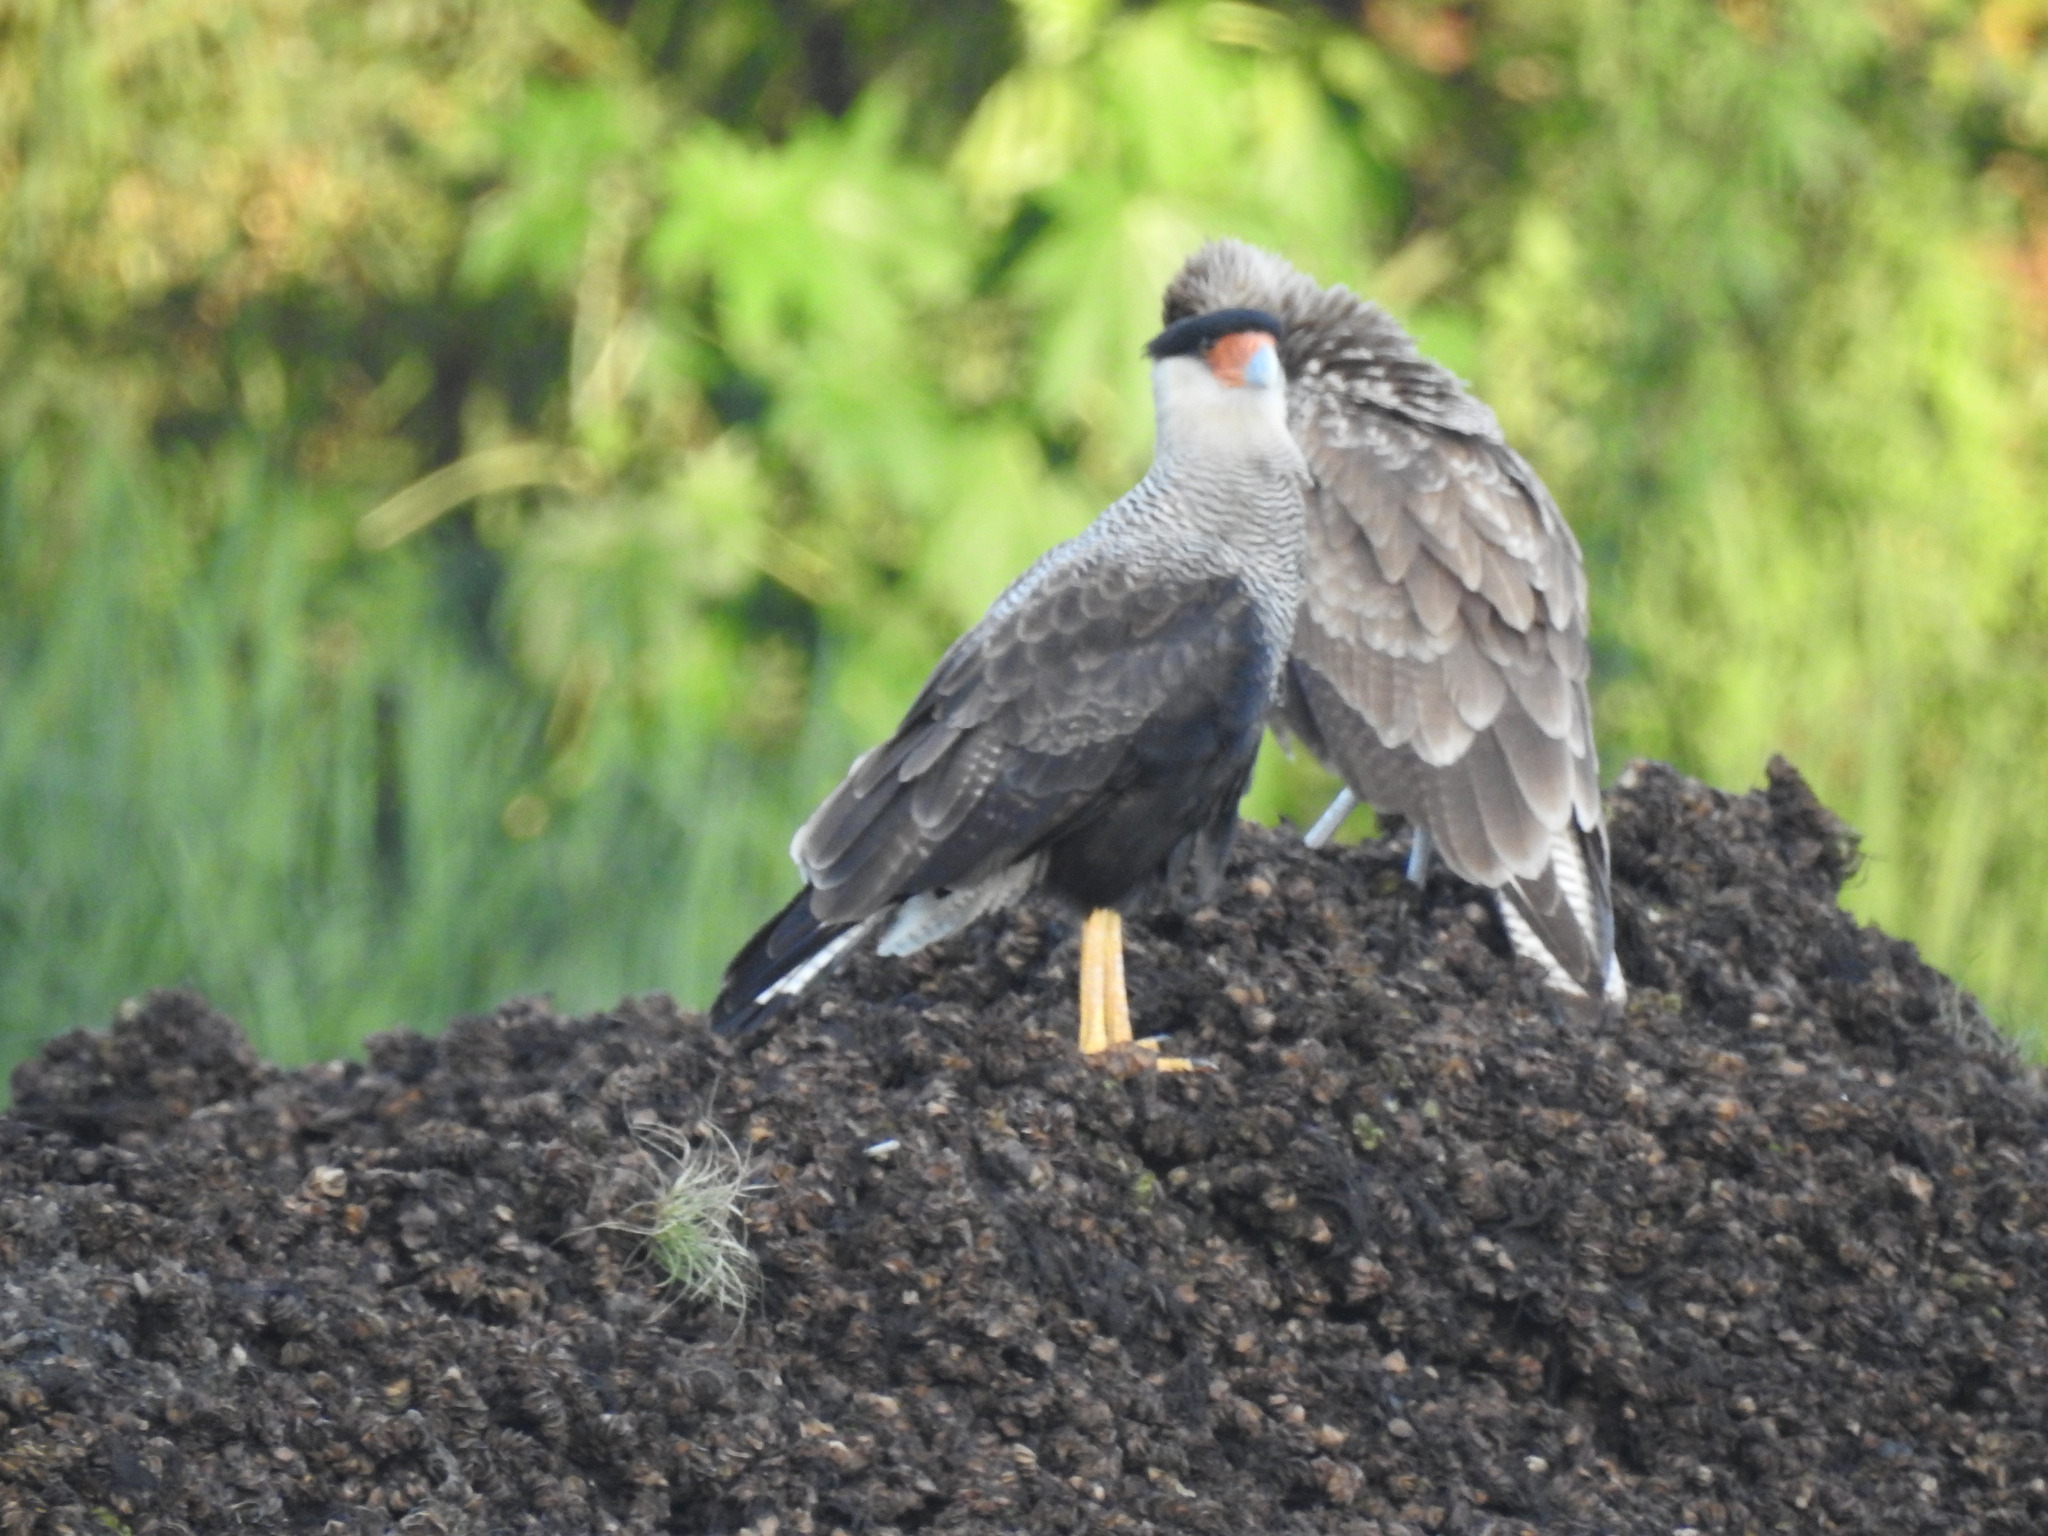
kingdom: Animalia
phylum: Chordata
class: Aves
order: Falconiformes
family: Falconidae
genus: Caracara
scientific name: Caracara plancus
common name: Southern caracara
